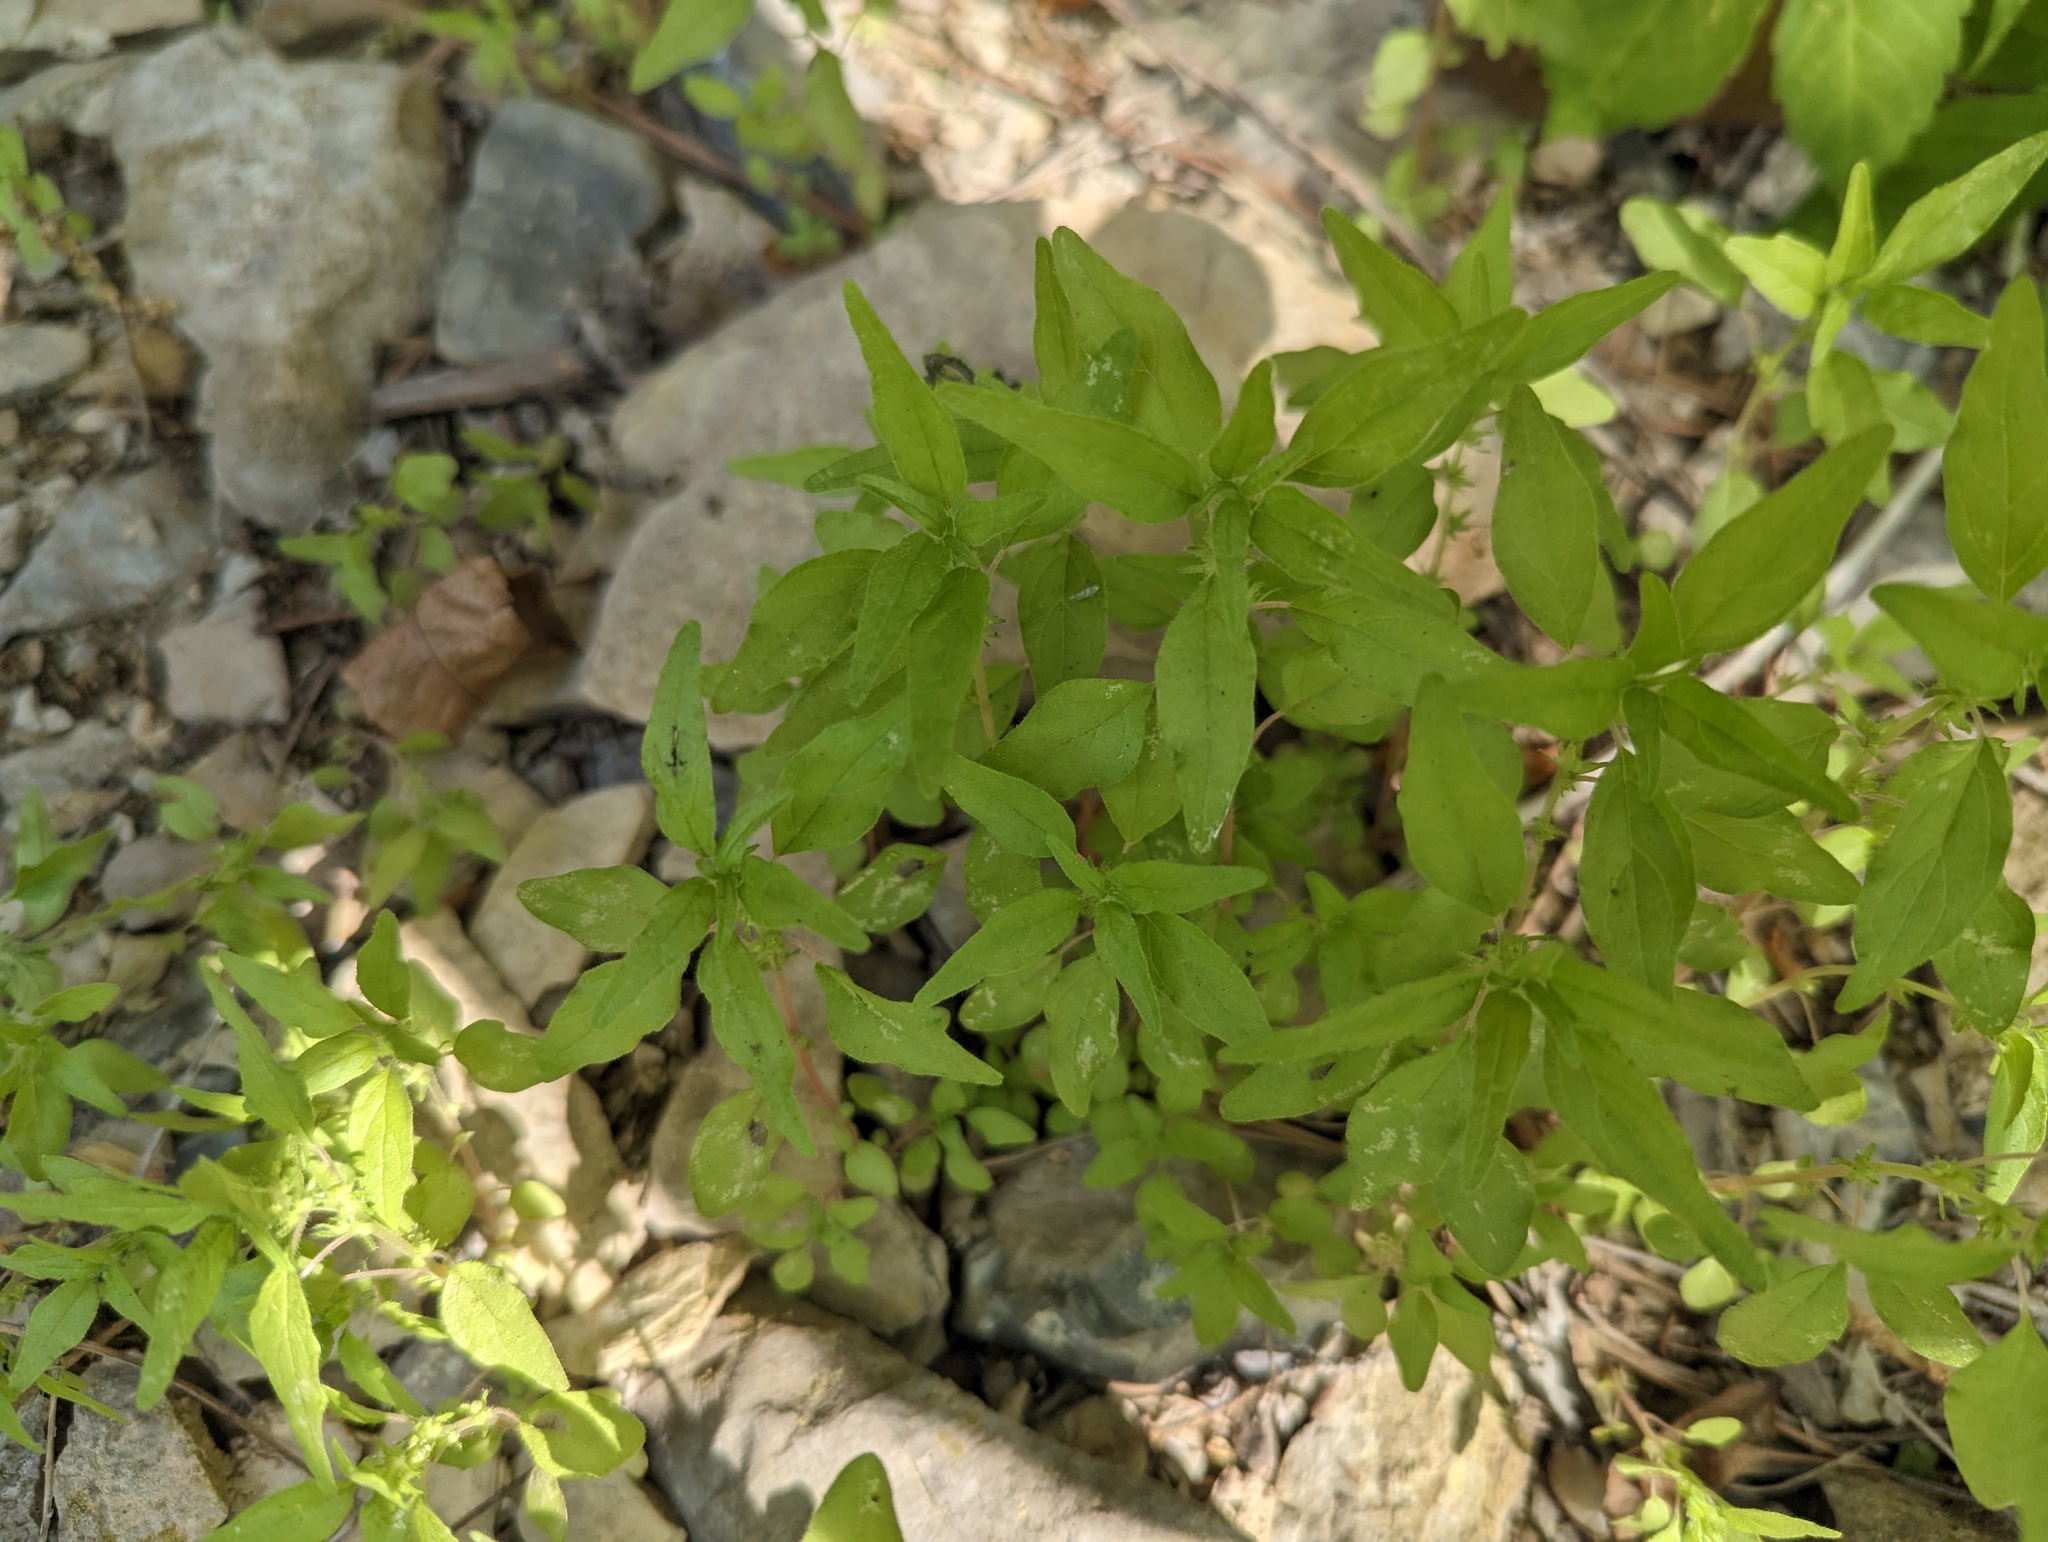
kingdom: Plantae
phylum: Tracheophyta
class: Magnoliopsida
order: Rosales
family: Urticaceae
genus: Parietaria
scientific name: Parietaria pensylvanica
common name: Pennsylvania pellitory
